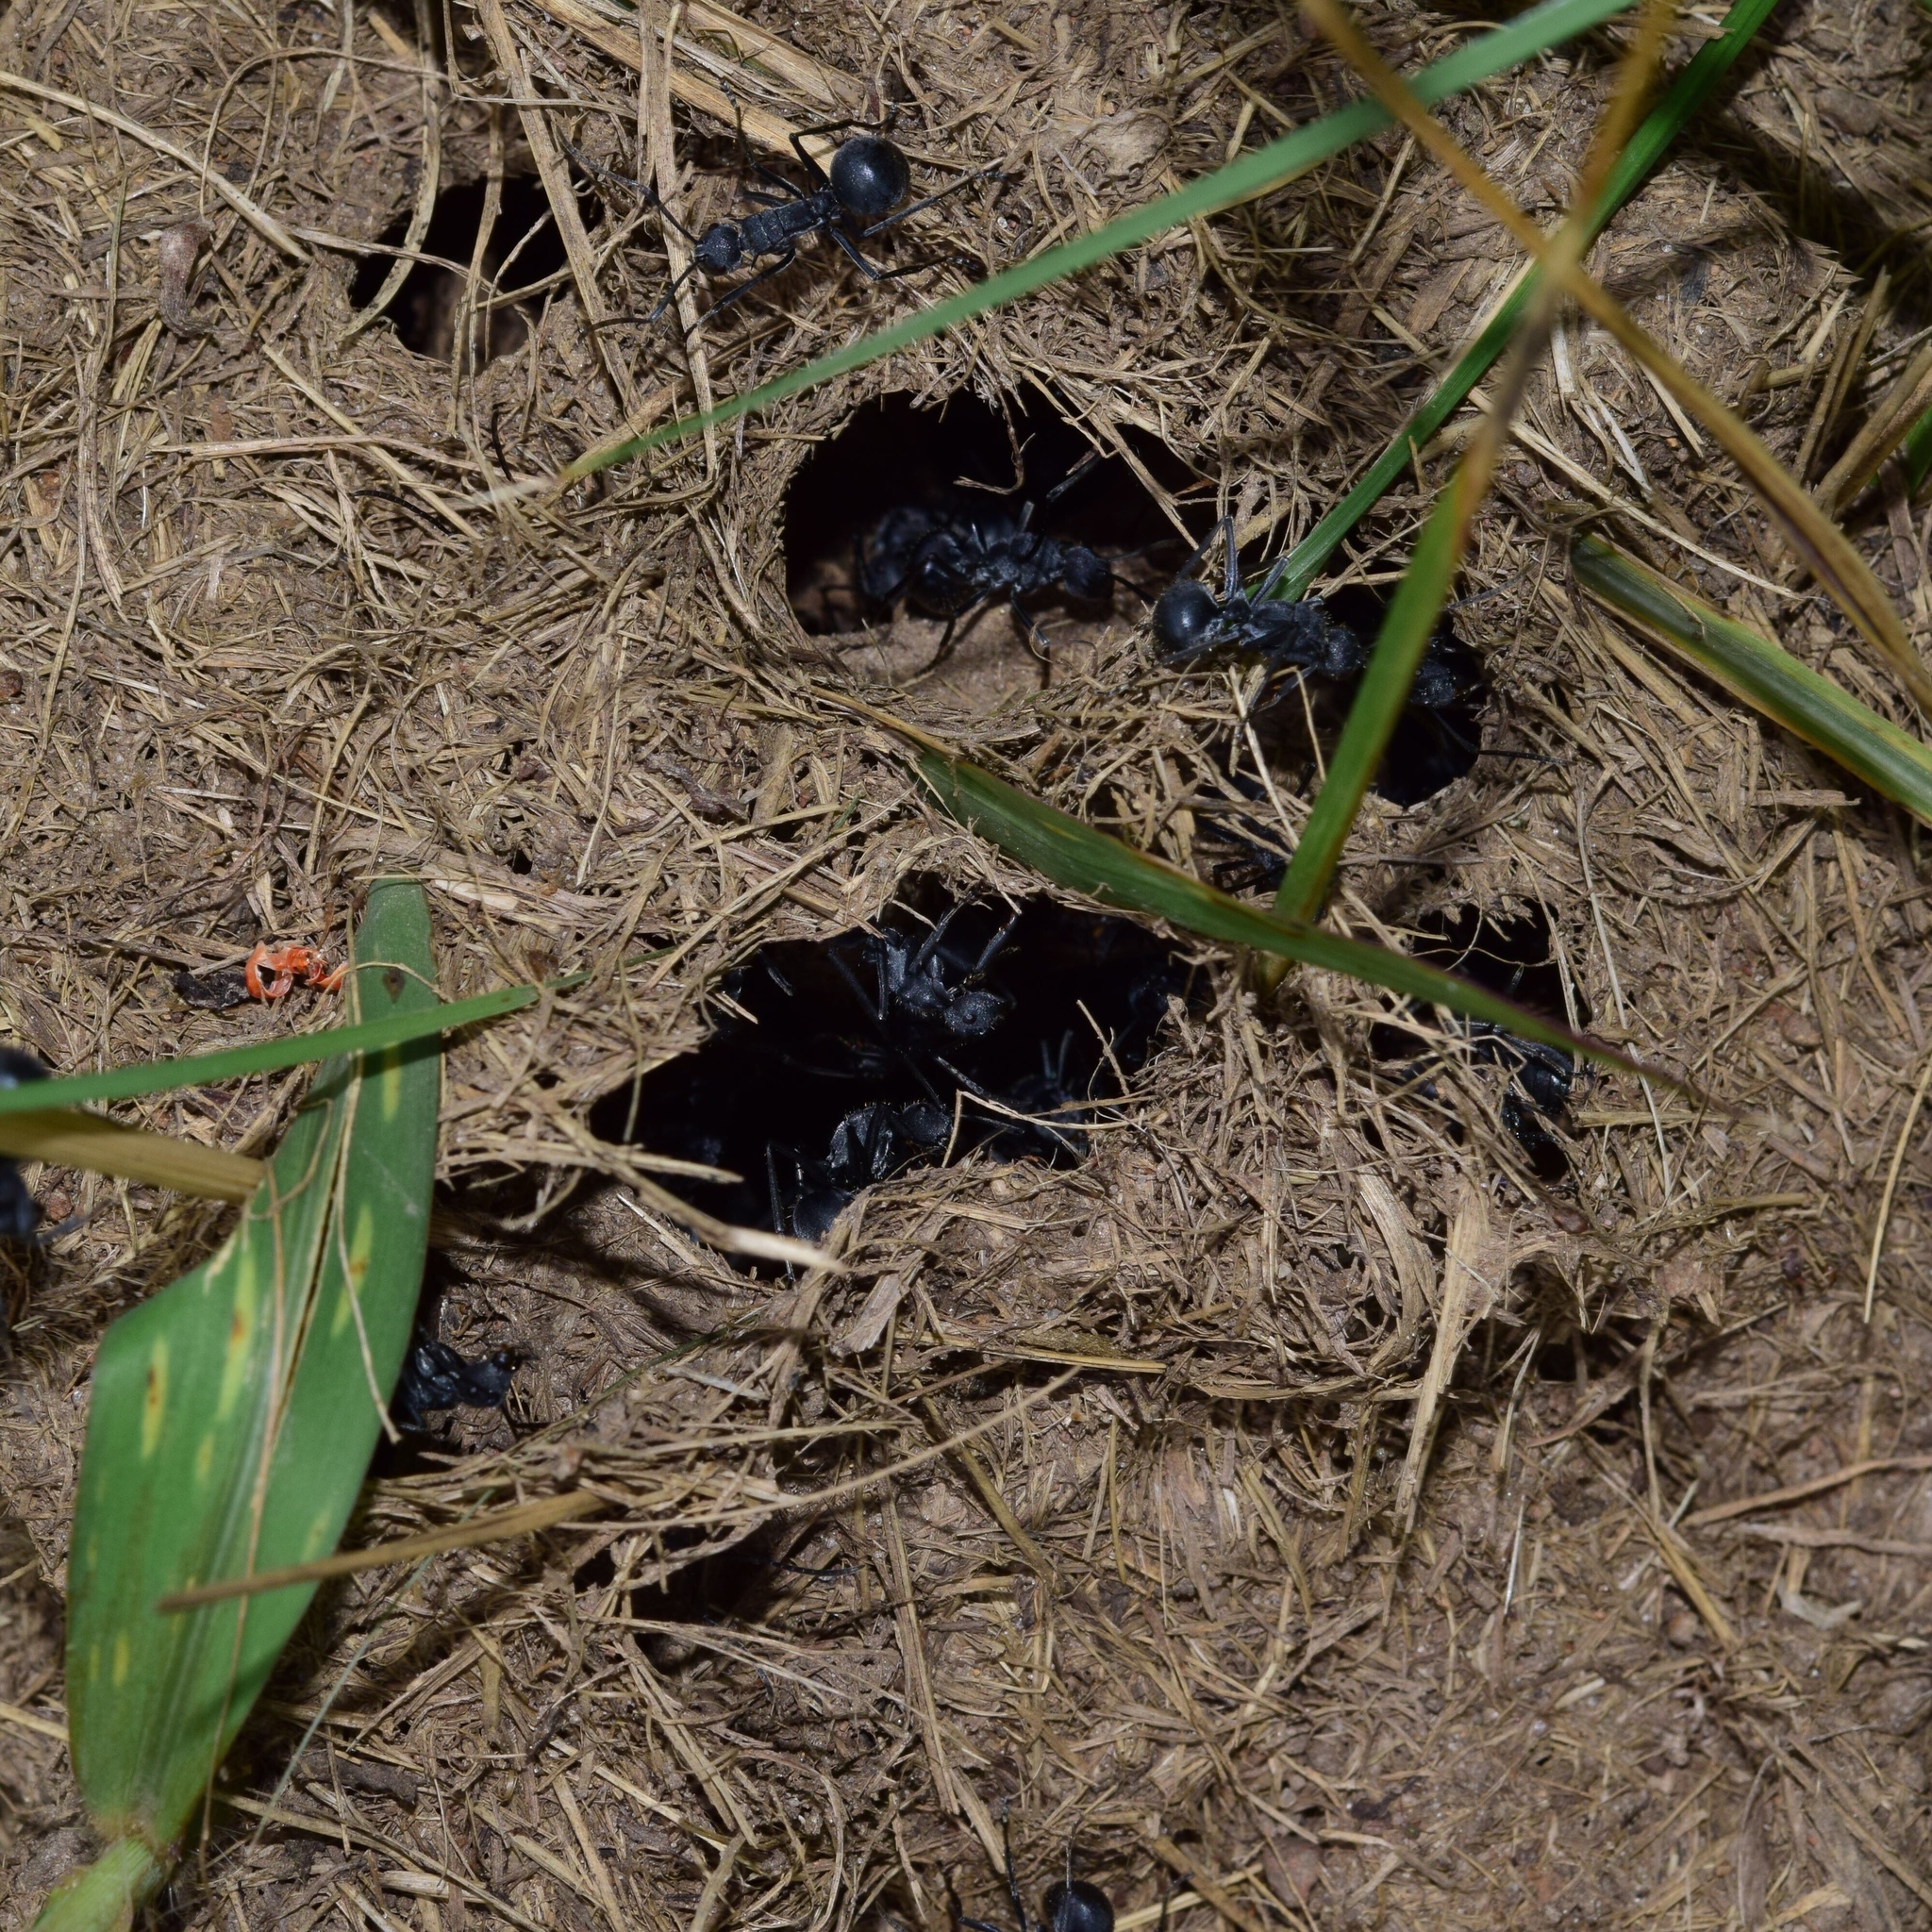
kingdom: Animalia
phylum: Arthropoda
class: Insecta
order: Hymenoptera
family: Formicidae
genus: Polyrhachis
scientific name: Polyrhachis schistacea
